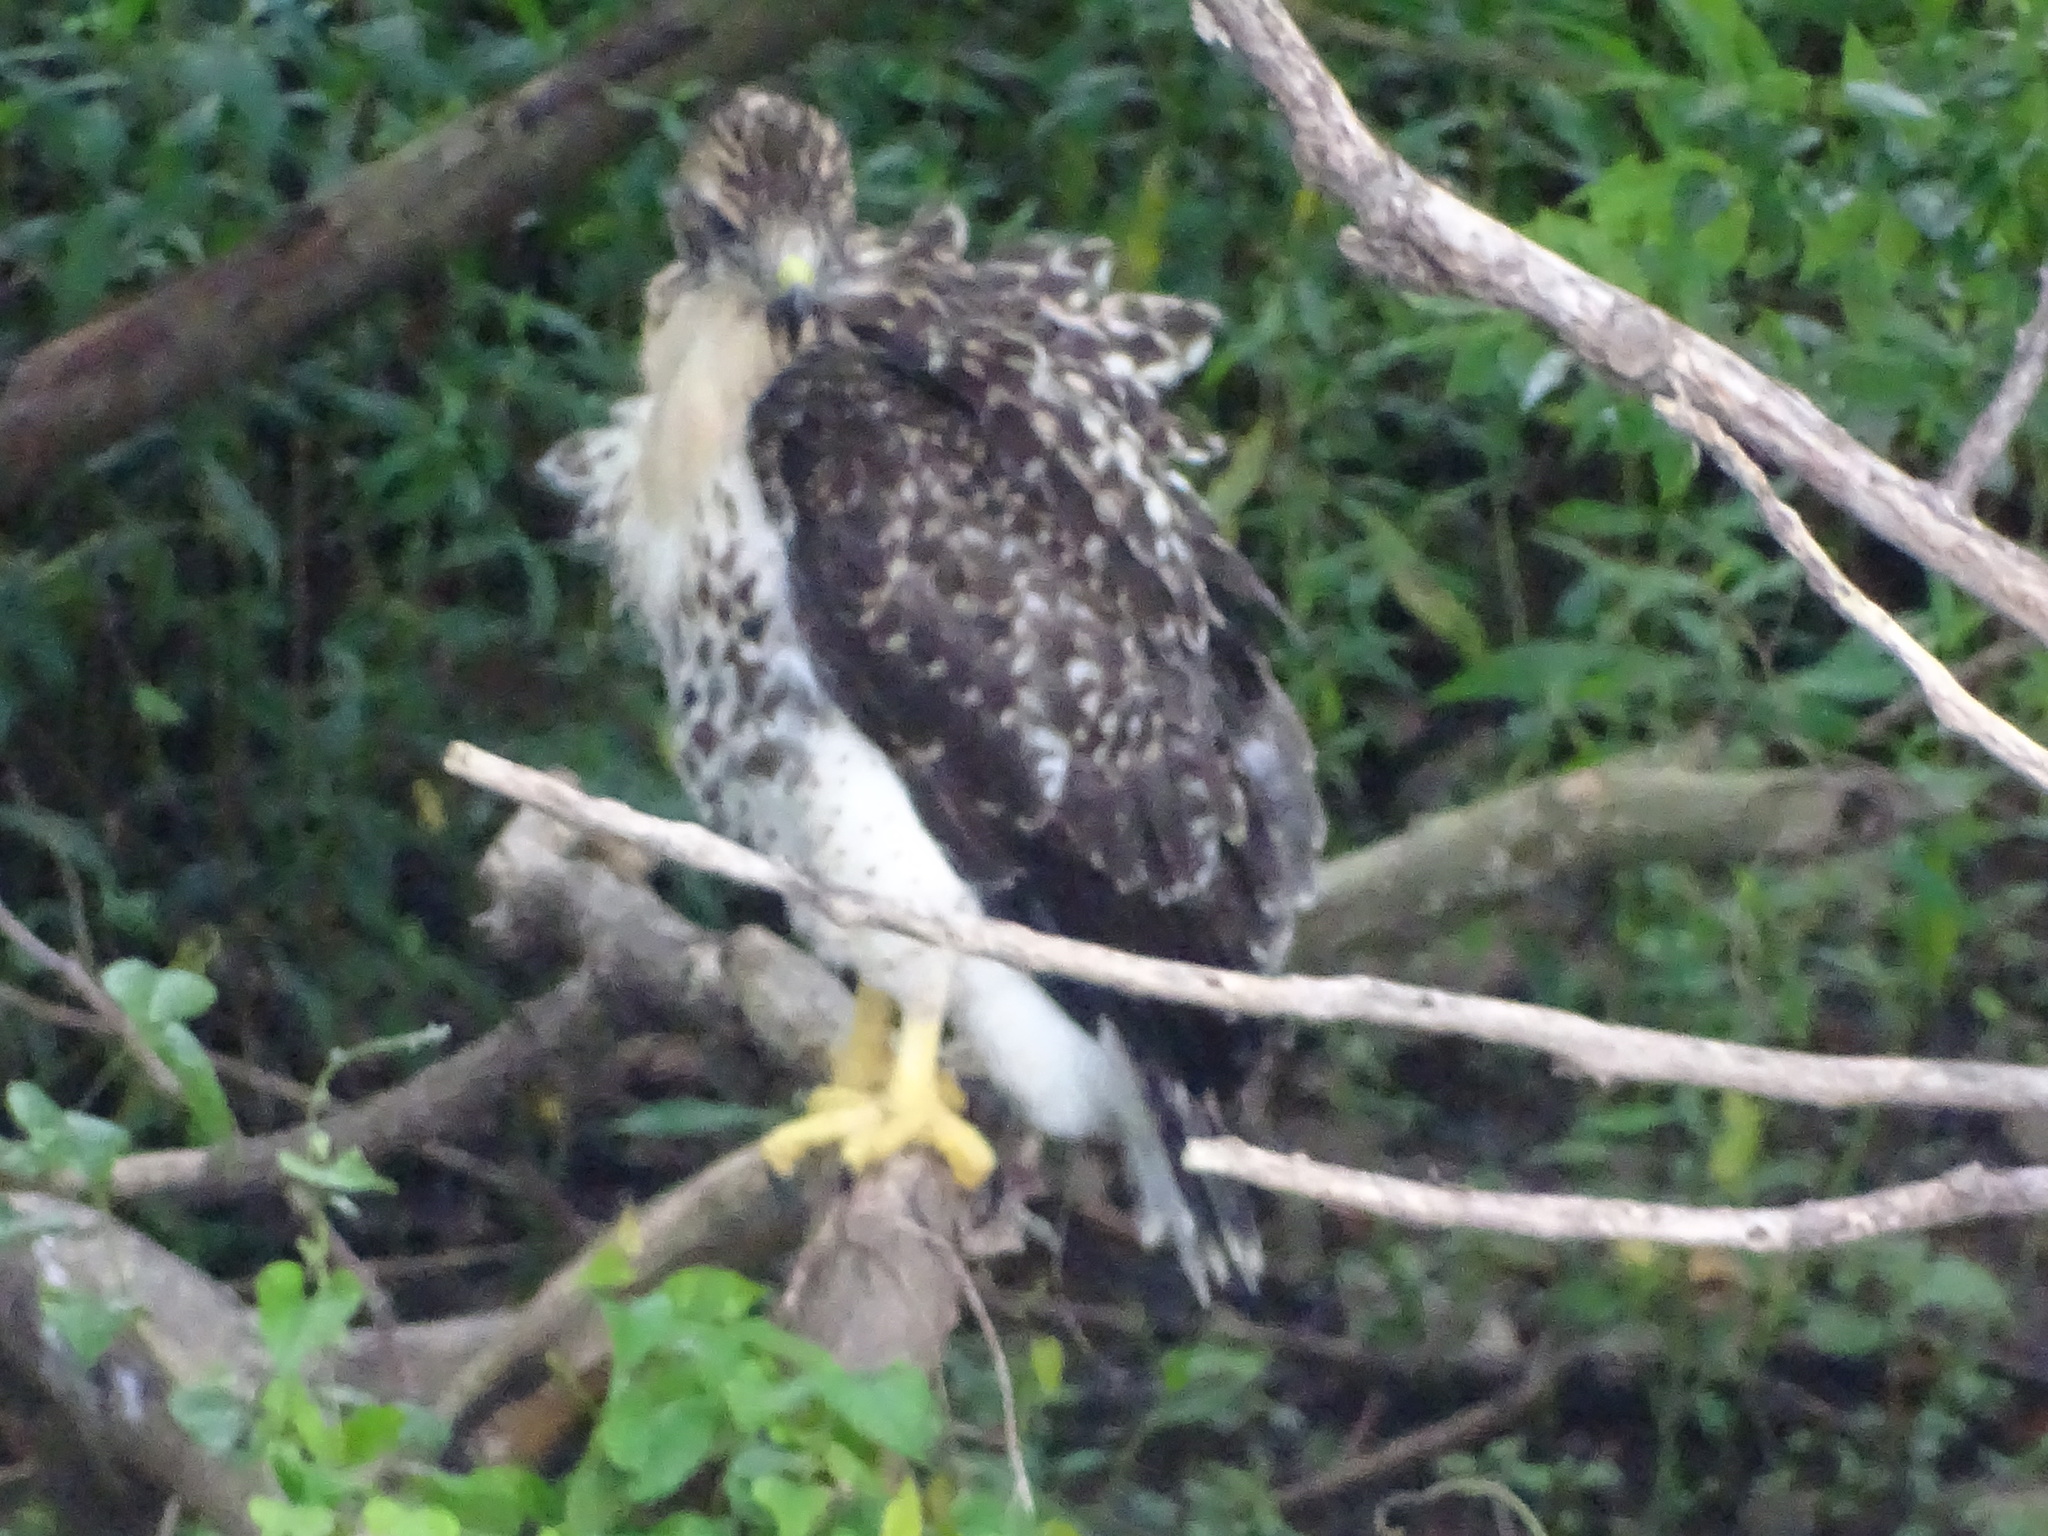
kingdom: Animalia
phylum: Chordata
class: Aves
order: Accipitriformes
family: Accipitridae
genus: Buteo
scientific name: Buteo jamaicensis
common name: Red-tailed hawk
